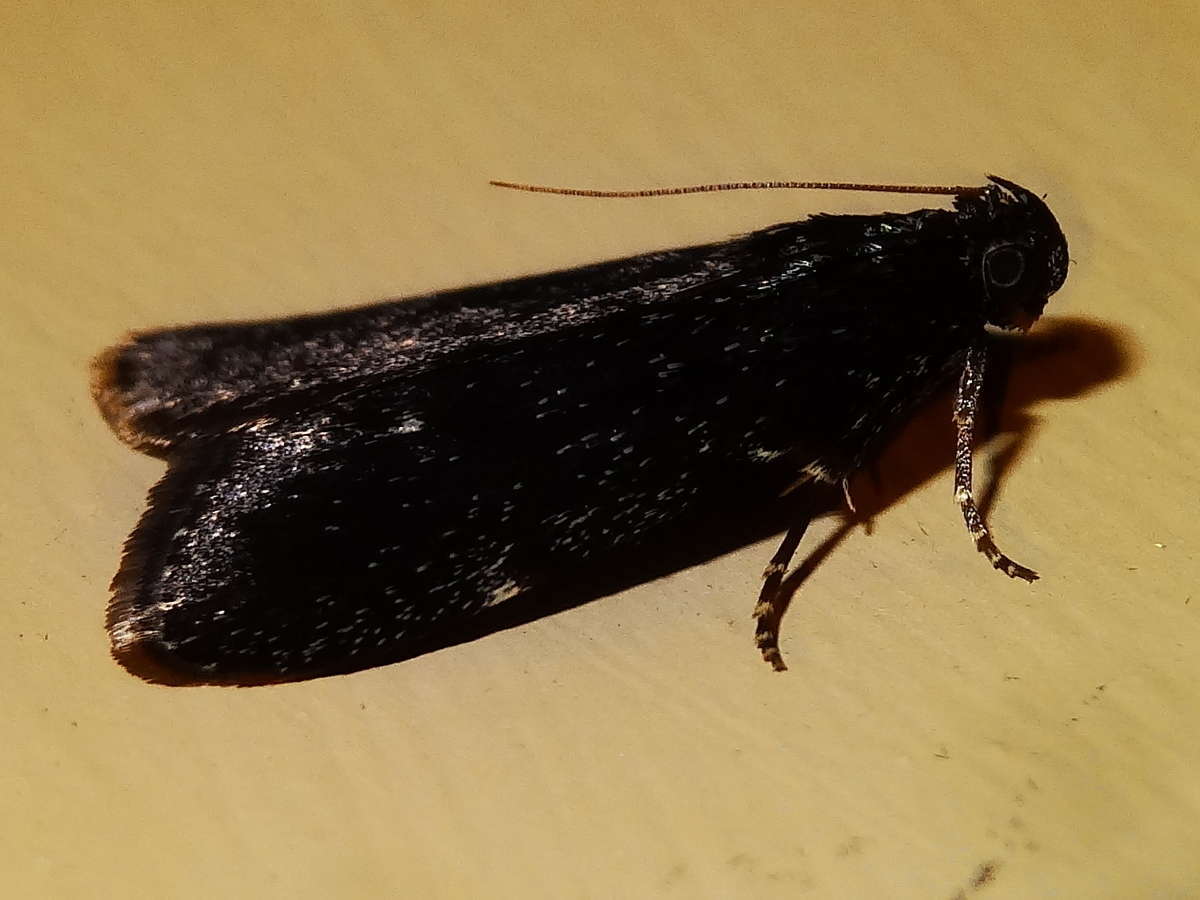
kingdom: Animalia
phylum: Arthropoda
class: Insecta
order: Lepidoptera
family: Pyralidae
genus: Stericta
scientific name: Stericta carbonalis
